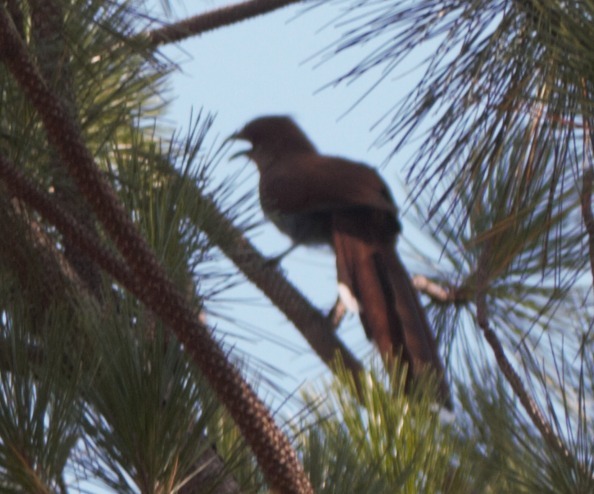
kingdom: Animalia
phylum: Chordata
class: Aves
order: Cuculiformes
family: Cuculidae
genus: Piaya
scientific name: Piaya cayana
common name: Squirrel cuckoo
